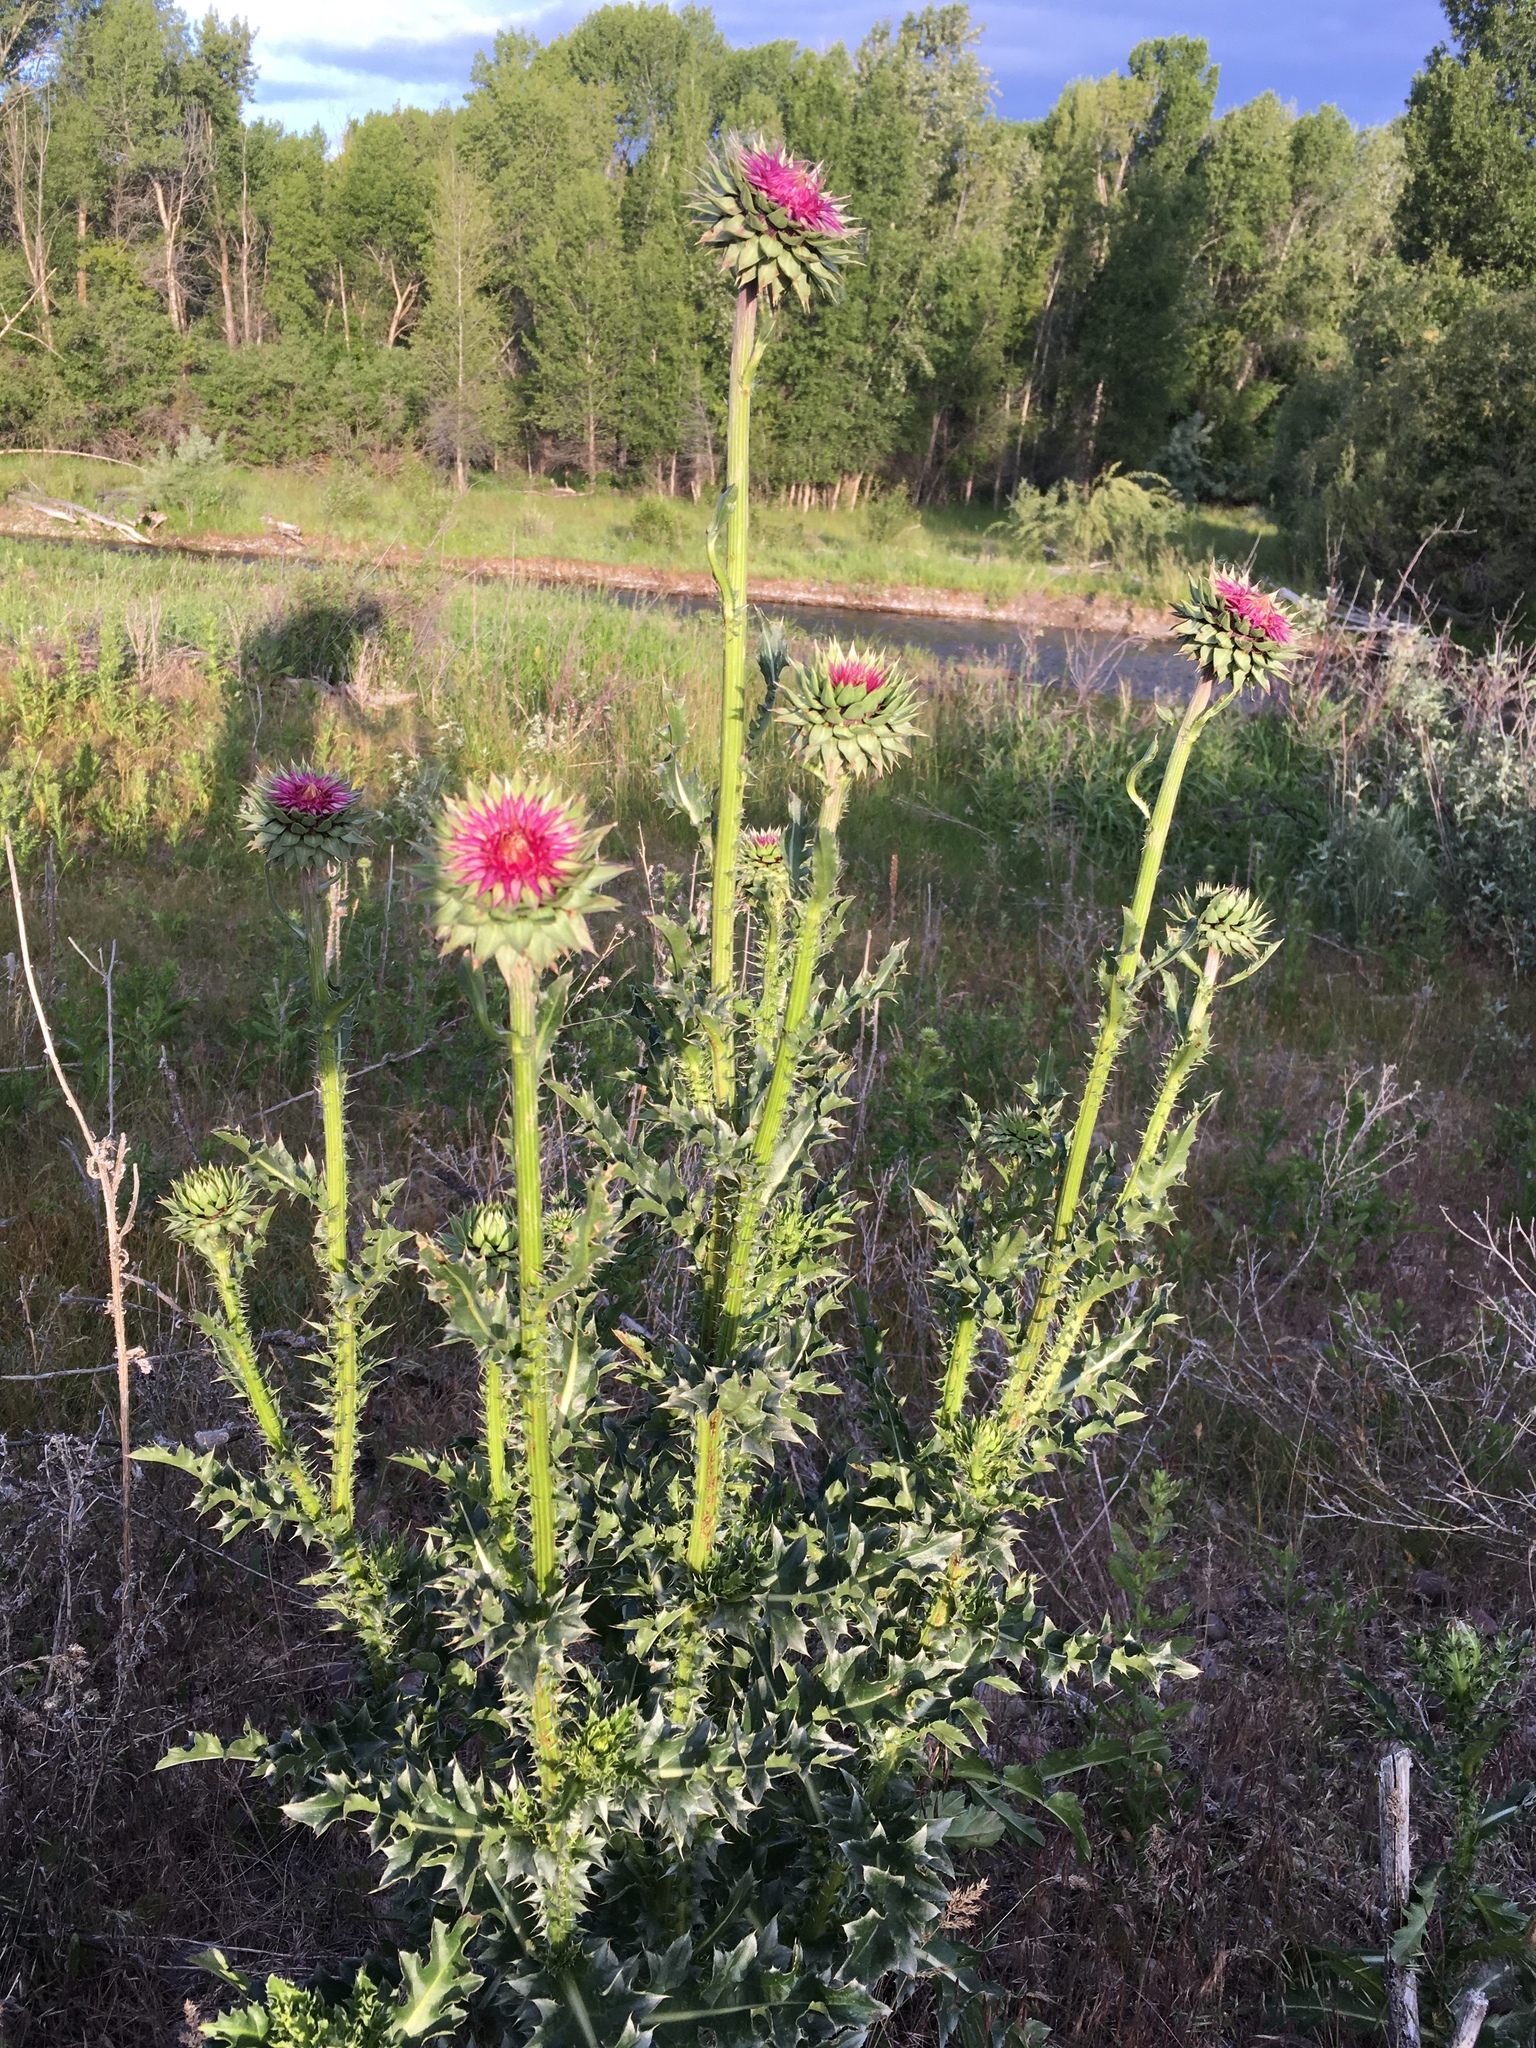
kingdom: Plantae
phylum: Tracheophyta
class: Magnoliopsida
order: Asterales
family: Asteraceae
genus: Carduus
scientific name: Carduus nutans
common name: Musk thistle
